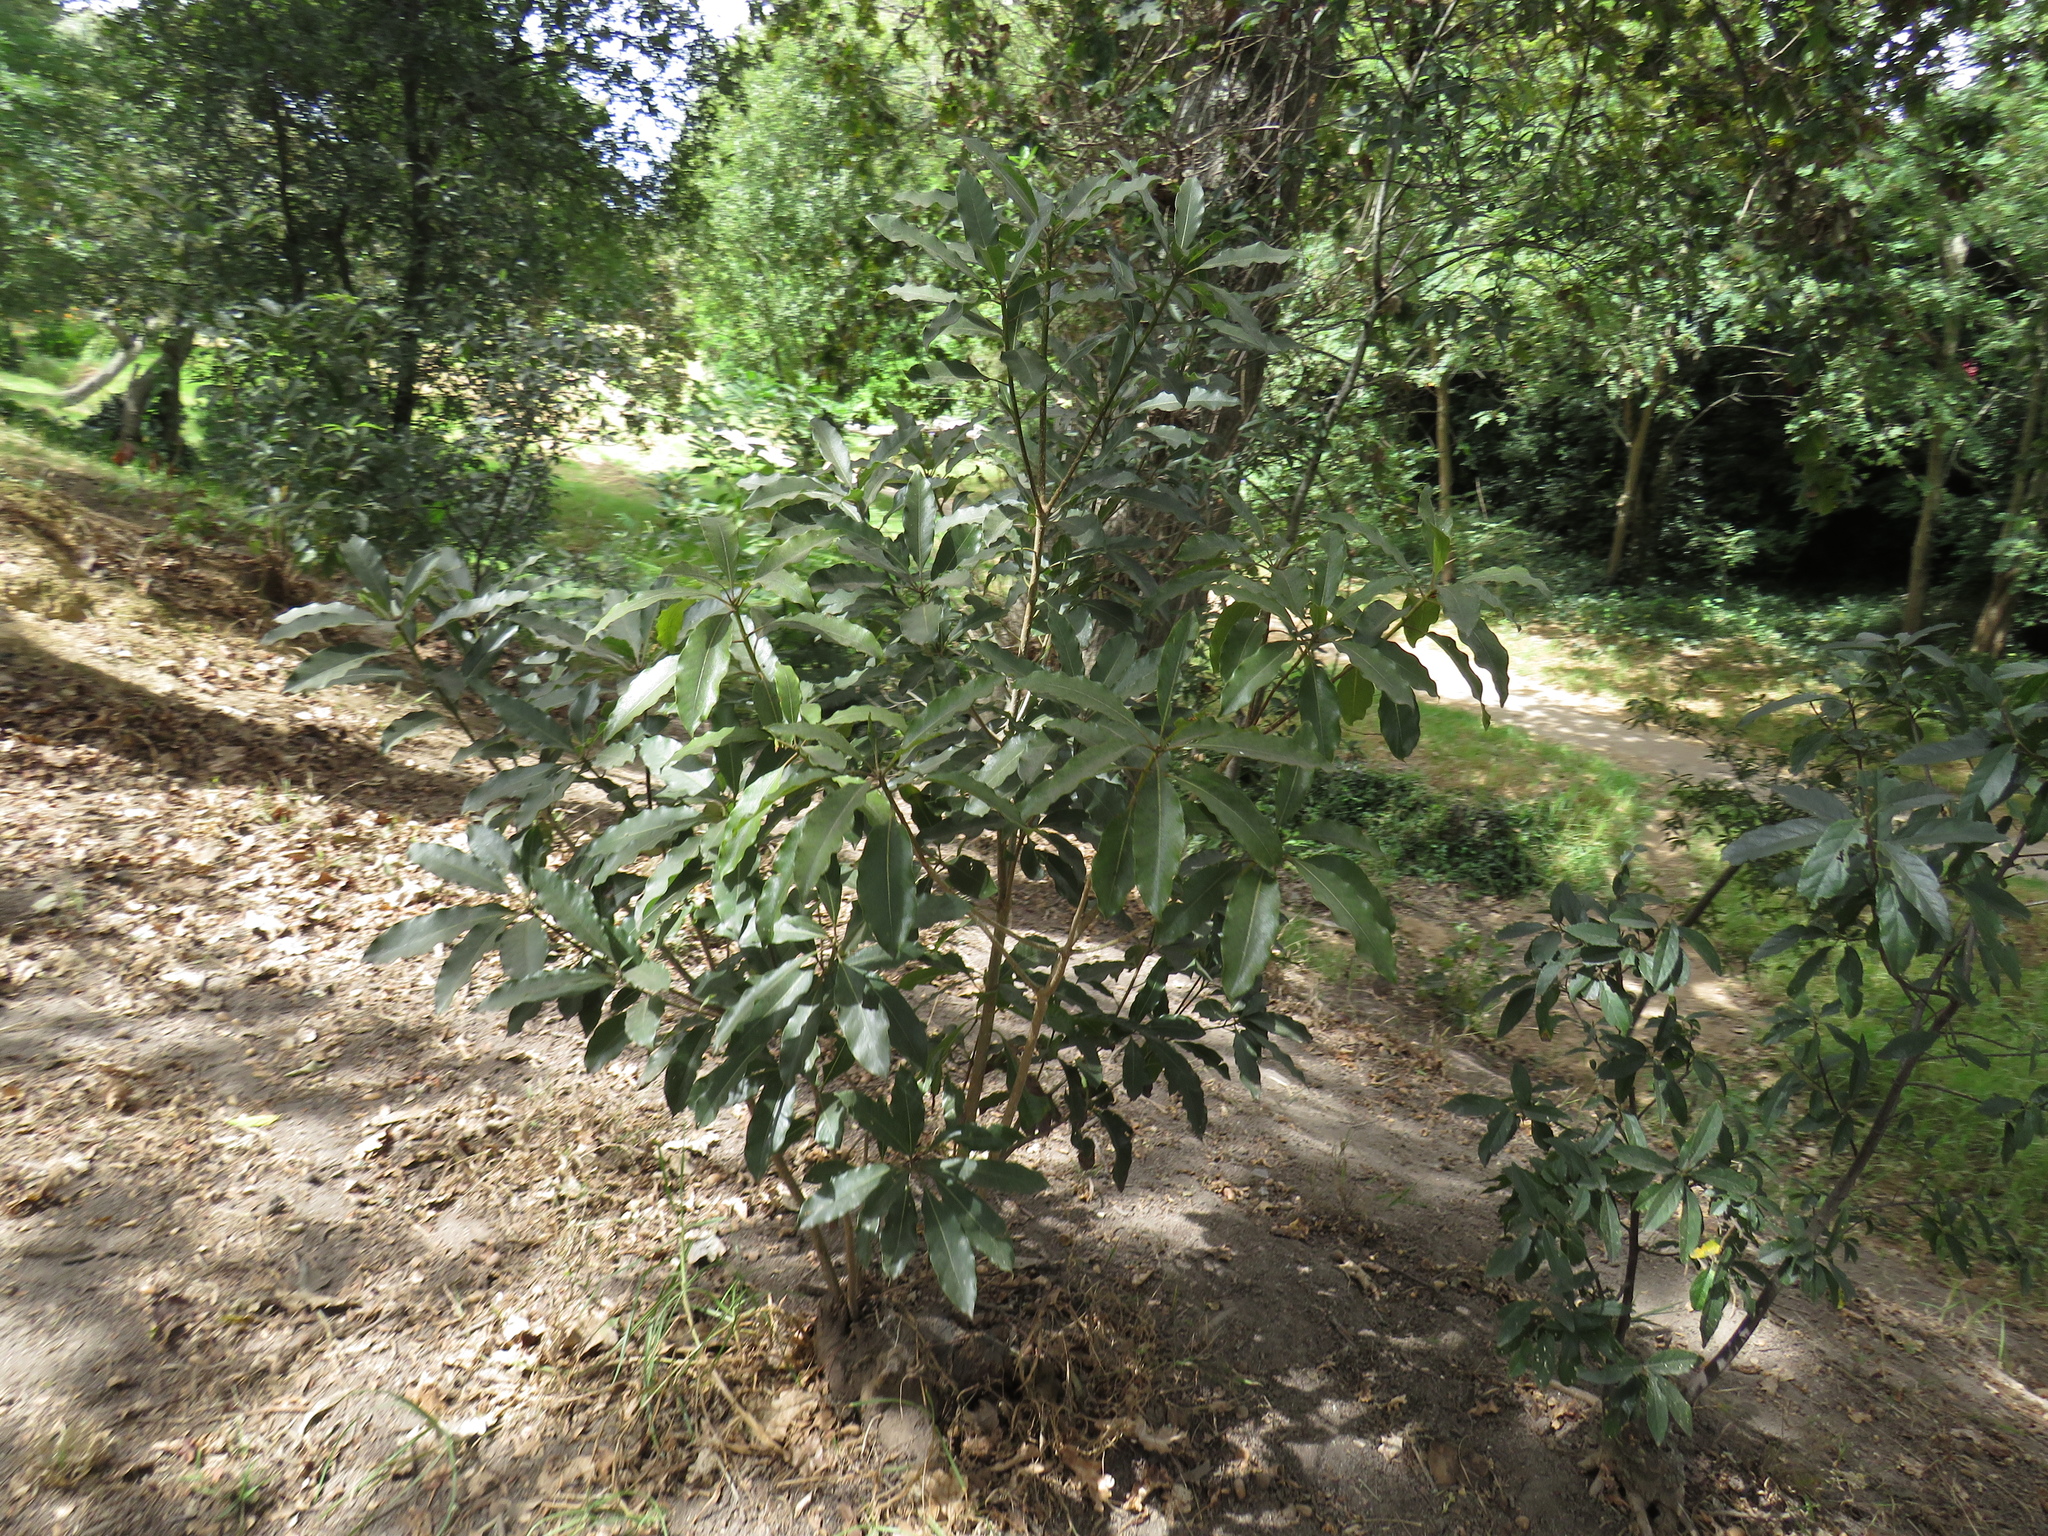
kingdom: Plantae
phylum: Tracheophyta
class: Magnoliopsida
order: Apiales
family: Pittosporaceae
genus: Pittosporum
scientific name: Pittosporum undulatum
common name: Australian cheesewood
